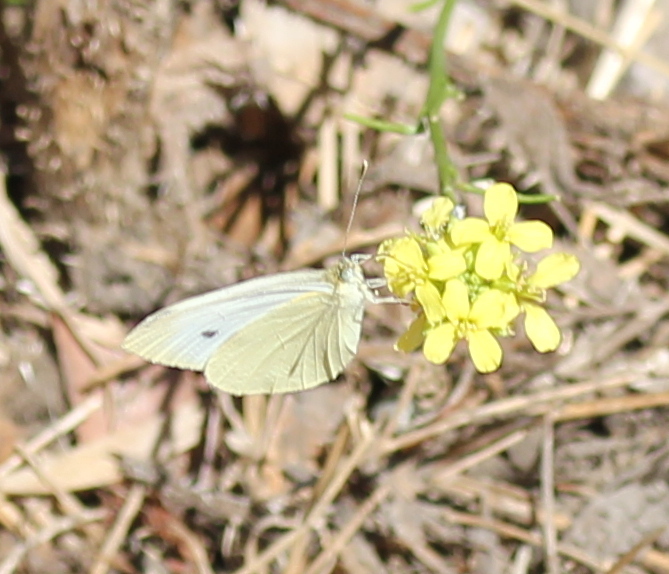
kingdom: Animalia
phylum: Arthropoda
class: Insecta
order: Lepidoptera
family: Pieridae
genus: Pieris
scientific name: Pieris rapae
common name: Small white
